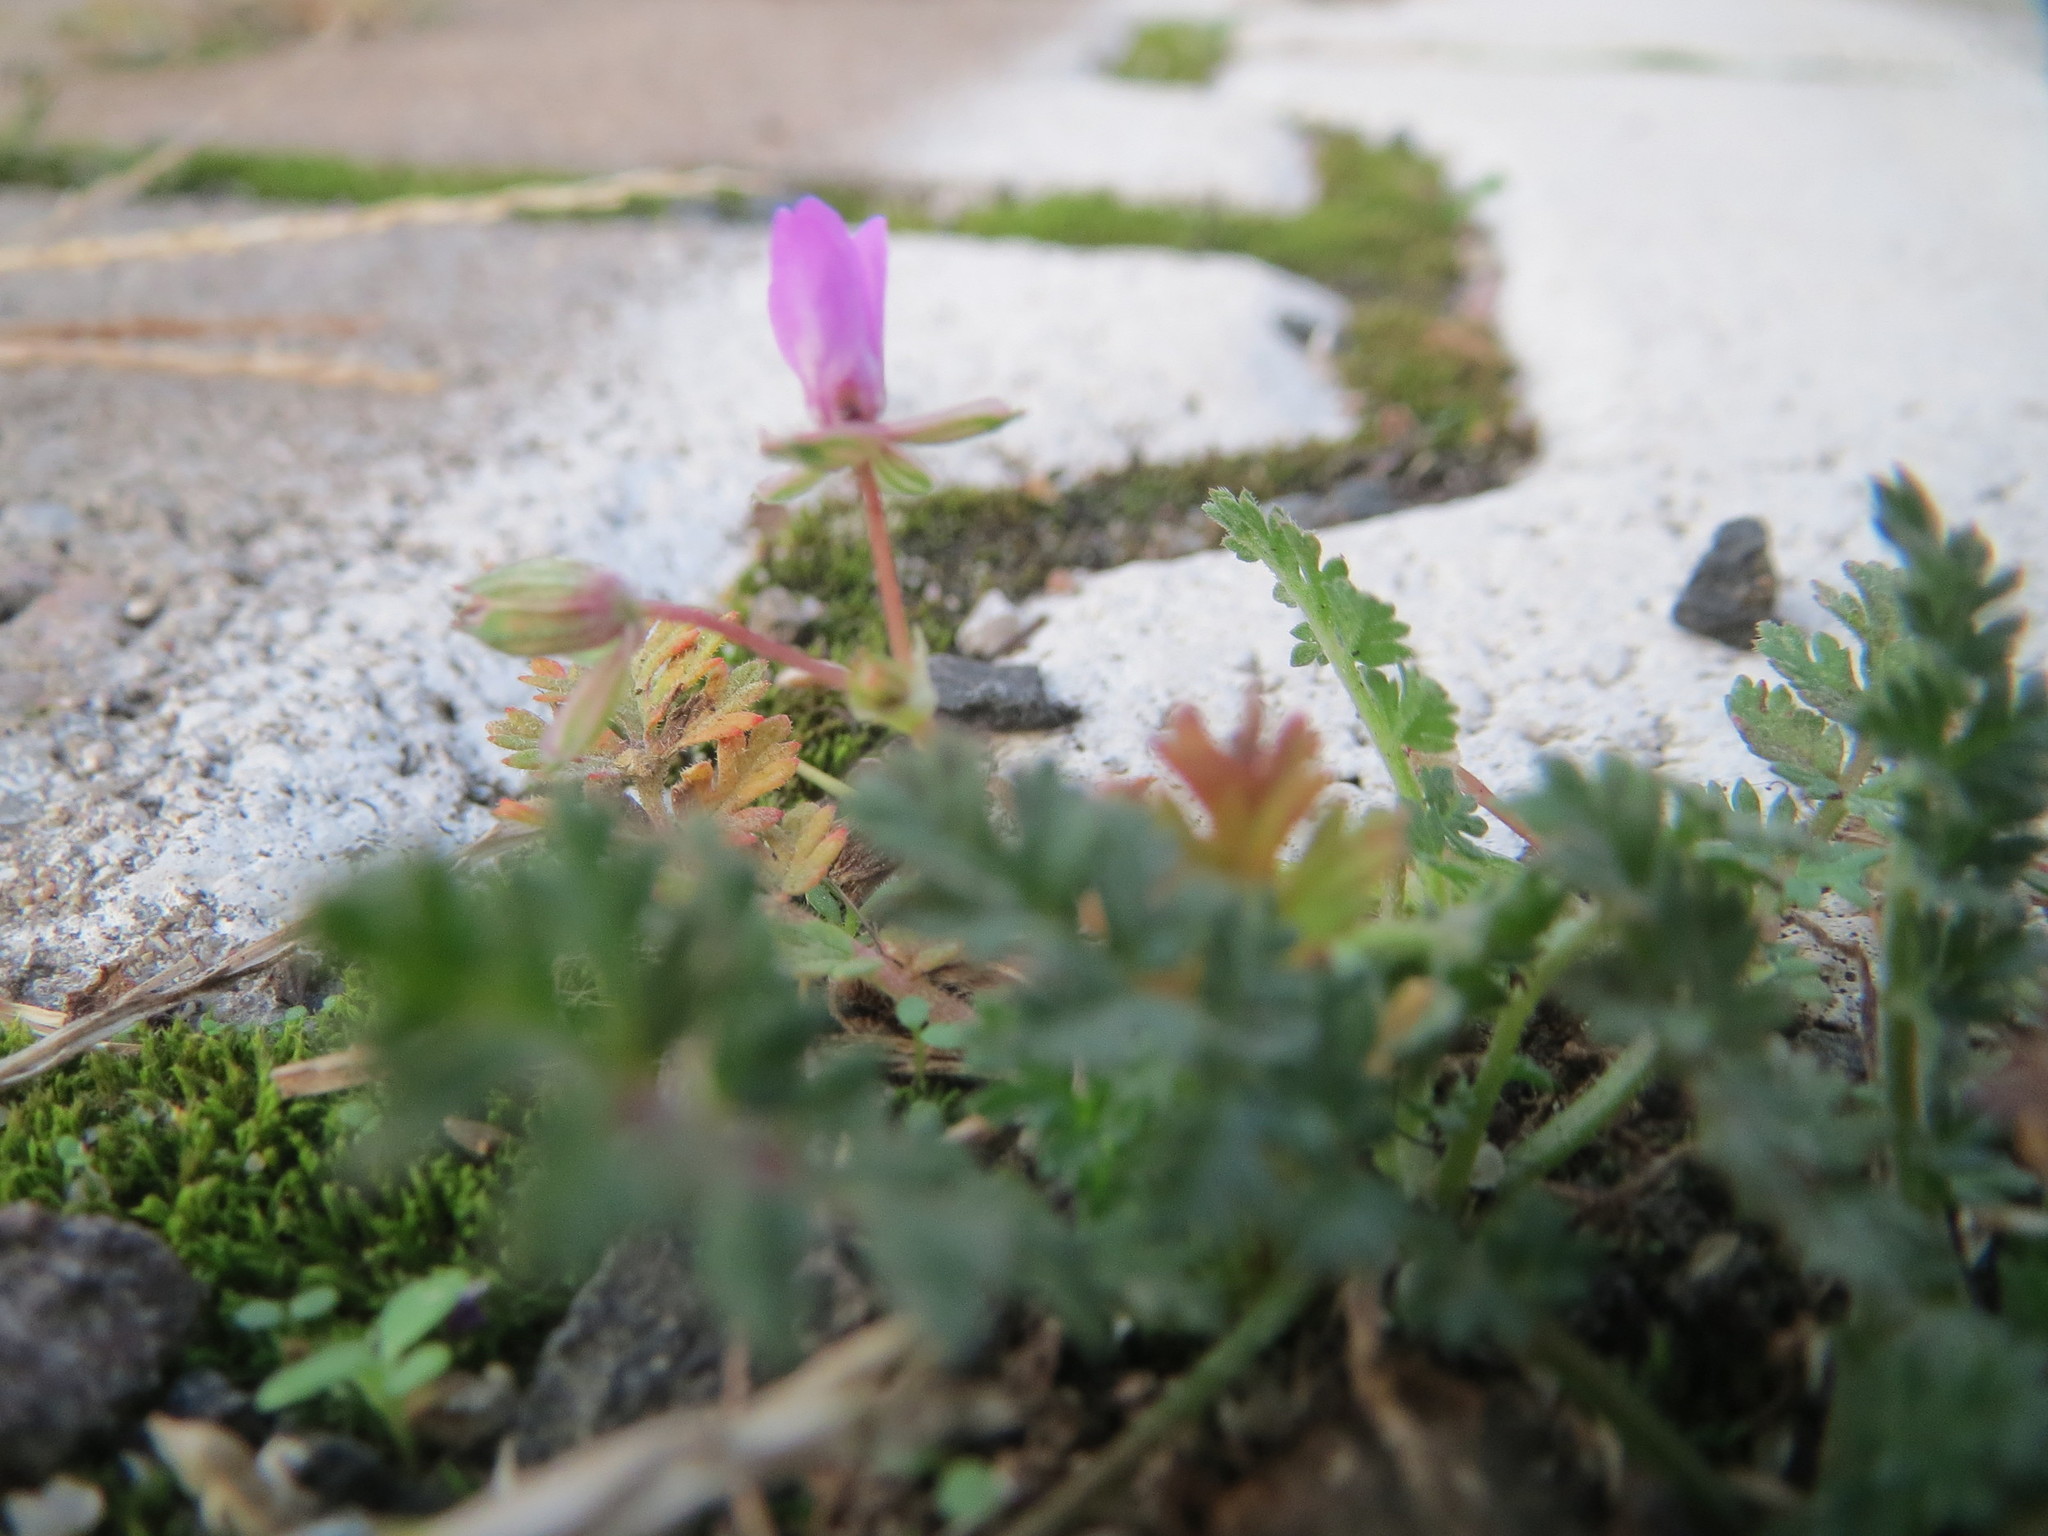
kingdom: Plantae
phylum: Tracheophyta
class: Magnoliopsida
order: Geraniales
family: Geraniaceae
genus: Erodium
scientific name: Erodium cicutarium
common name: Common stork's-bill
